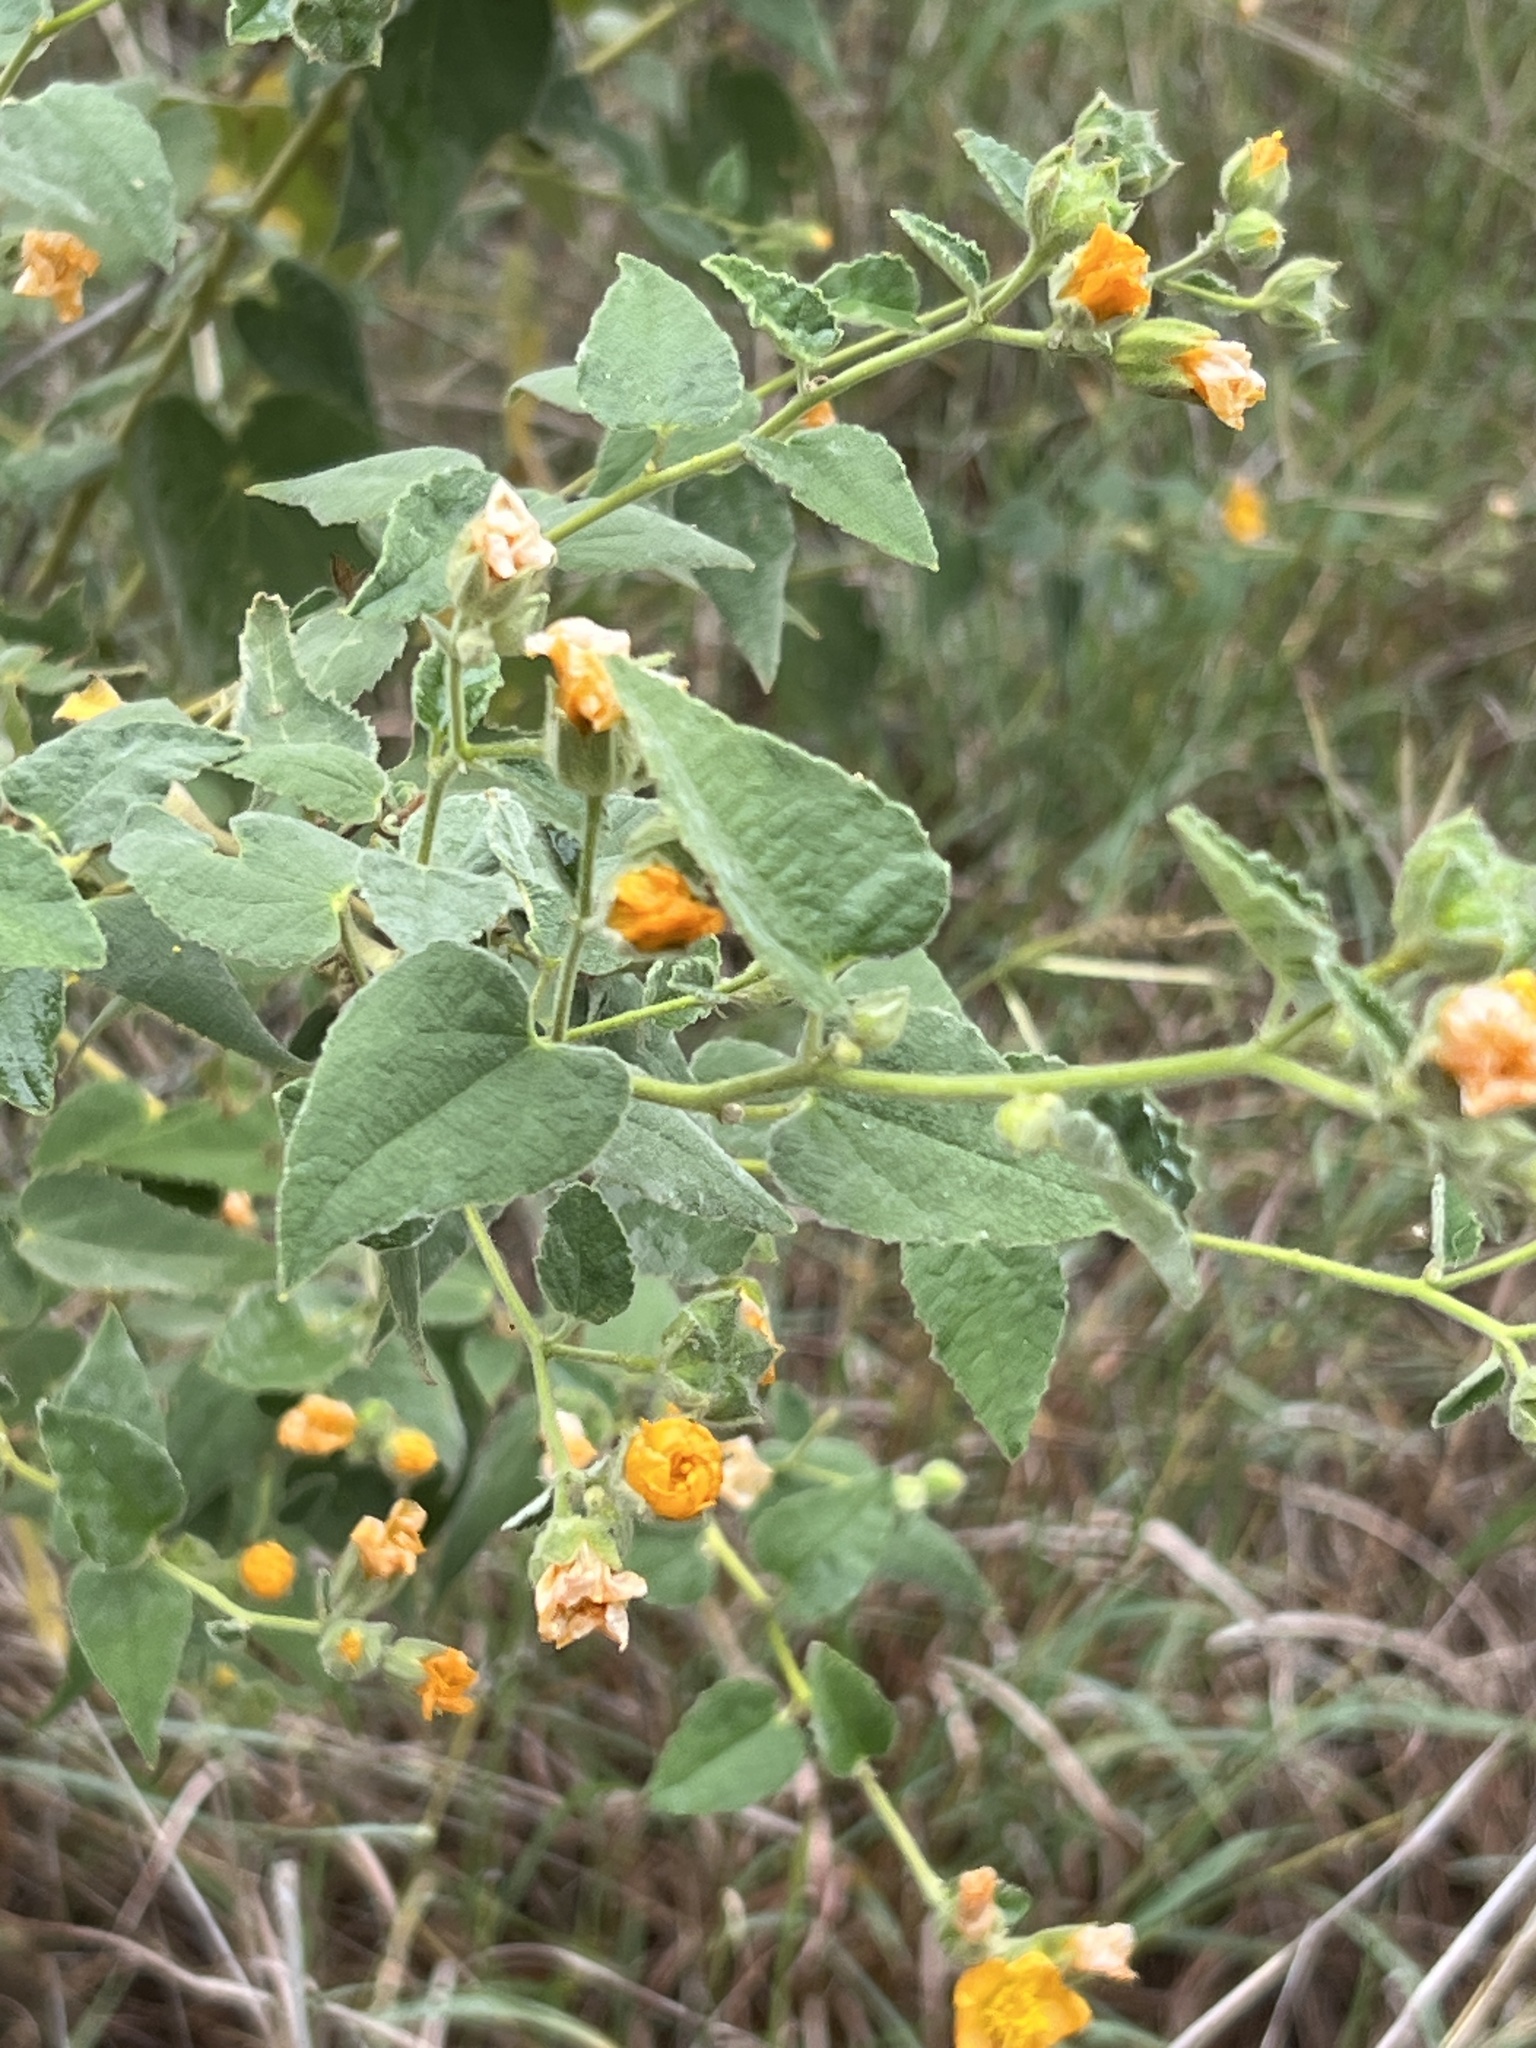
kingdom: Plantae
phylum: Tracheophyta
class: Magnoliopsida
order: Malvales
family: Malvaceae
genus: Allowissadula
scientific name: Allowissadula holosericea
